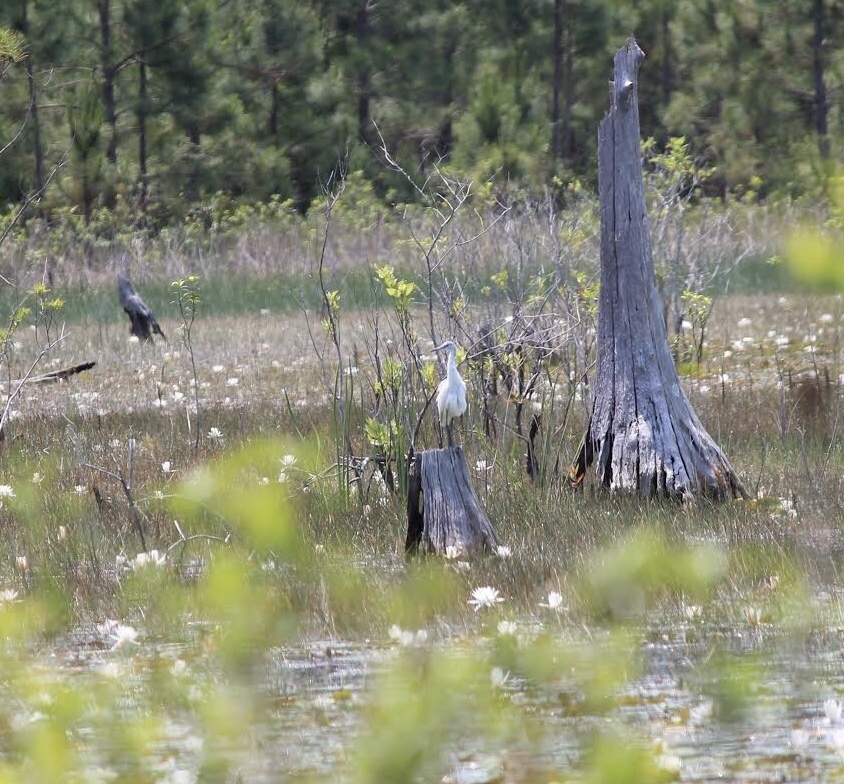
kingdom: Animalia
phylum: Chordata
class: Aves
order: Pelecaniformes
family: Ardeidae
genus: Egretta
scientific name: Egretta caerulea
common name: Little blue heron
